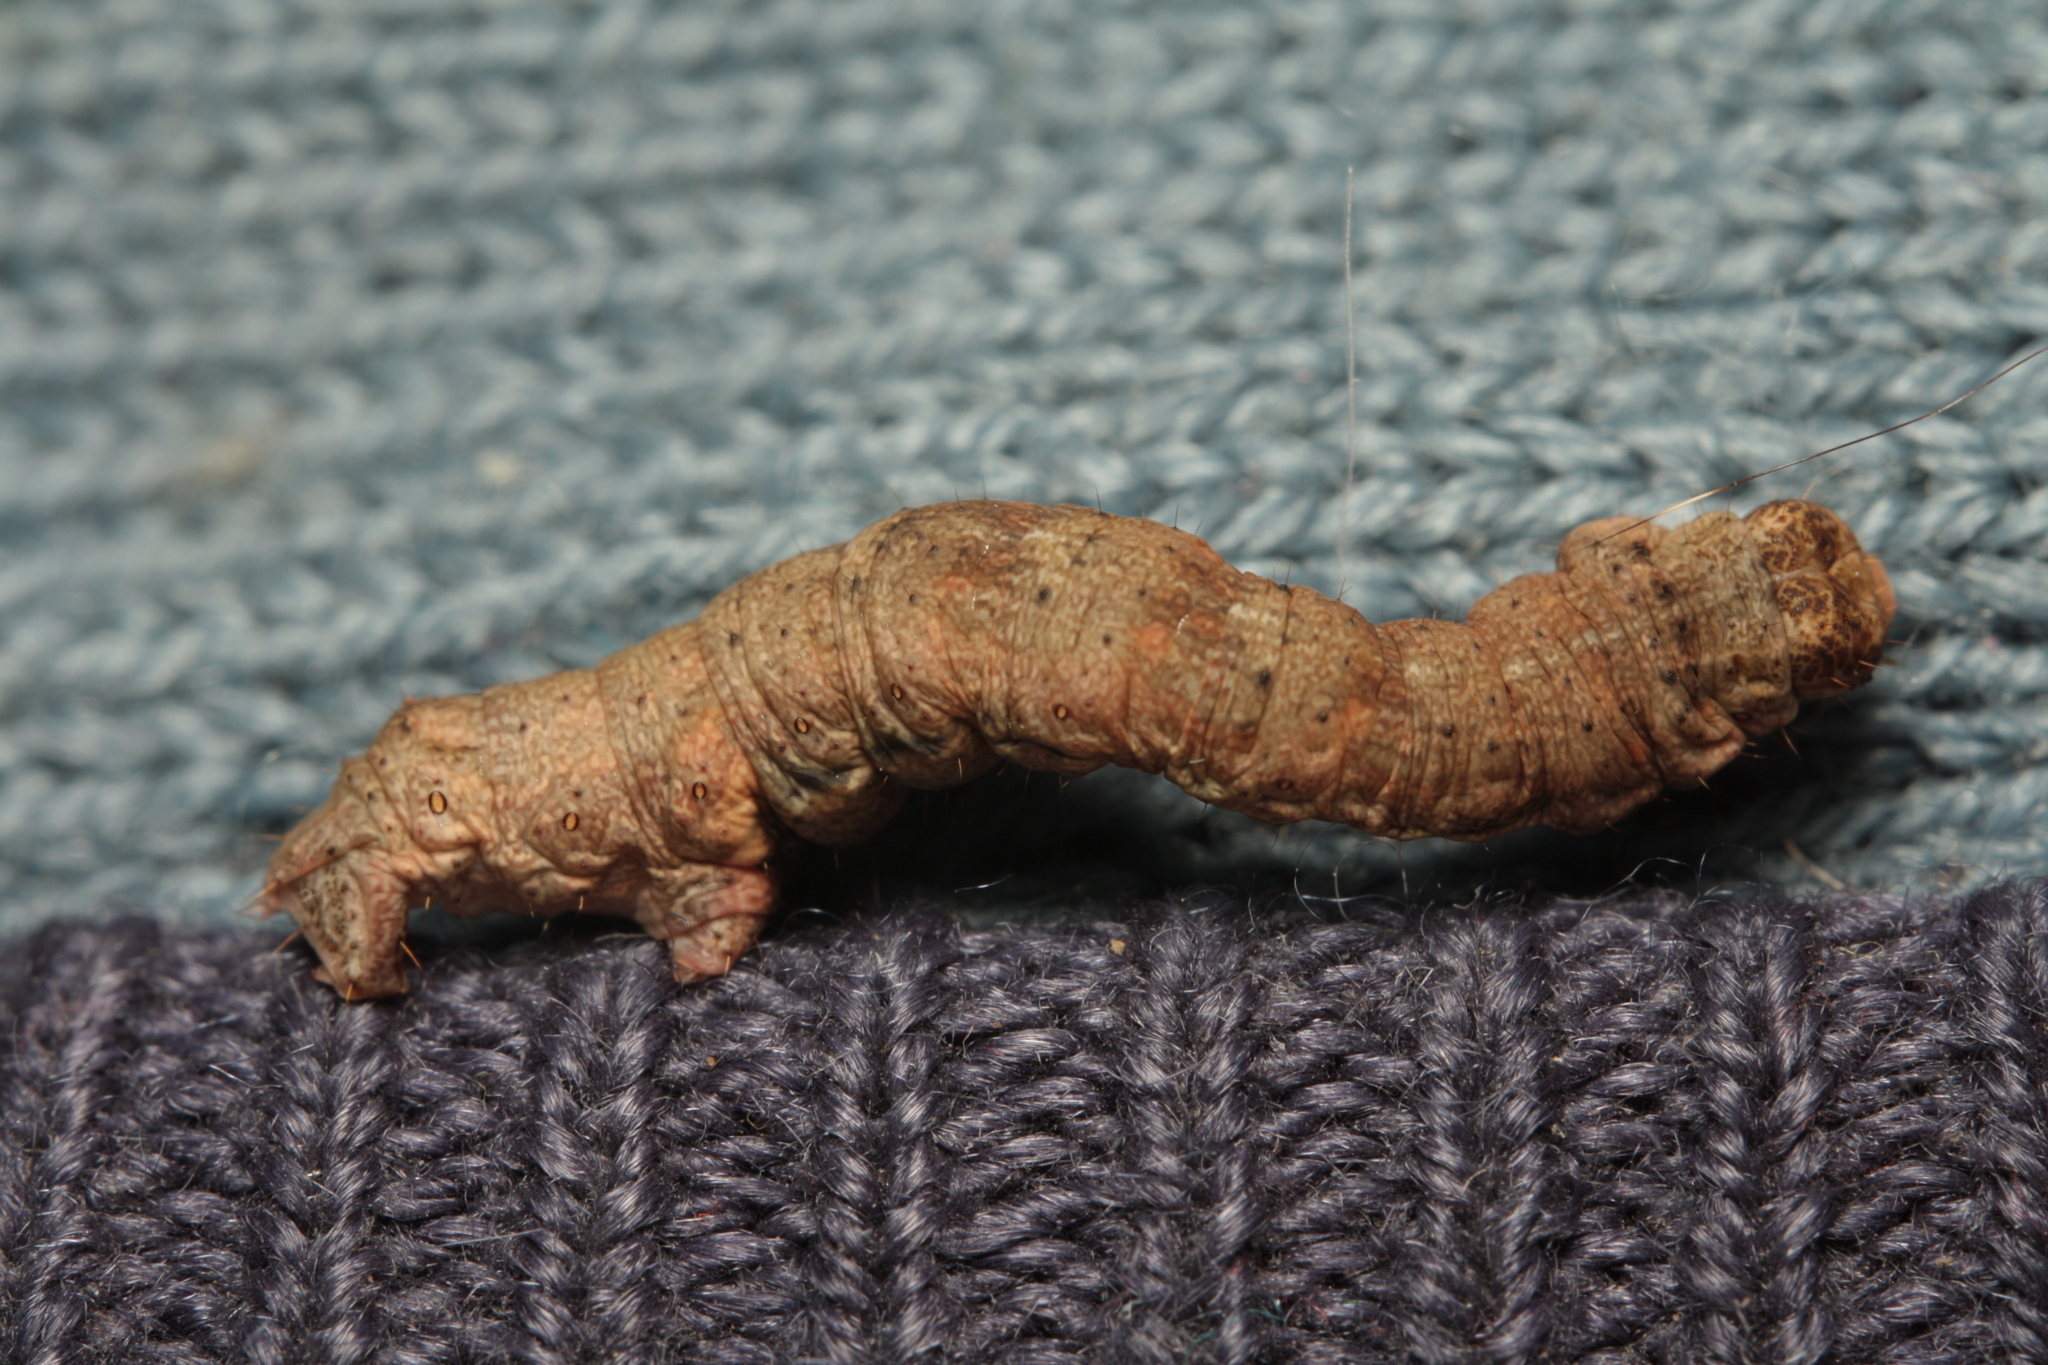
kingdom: Animalia
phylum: Arthropoda
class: Insecta
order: Lepidoptera
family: Geometridae
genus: Ectropis
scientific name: Ectropis crepuscularia
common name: Engrailed
